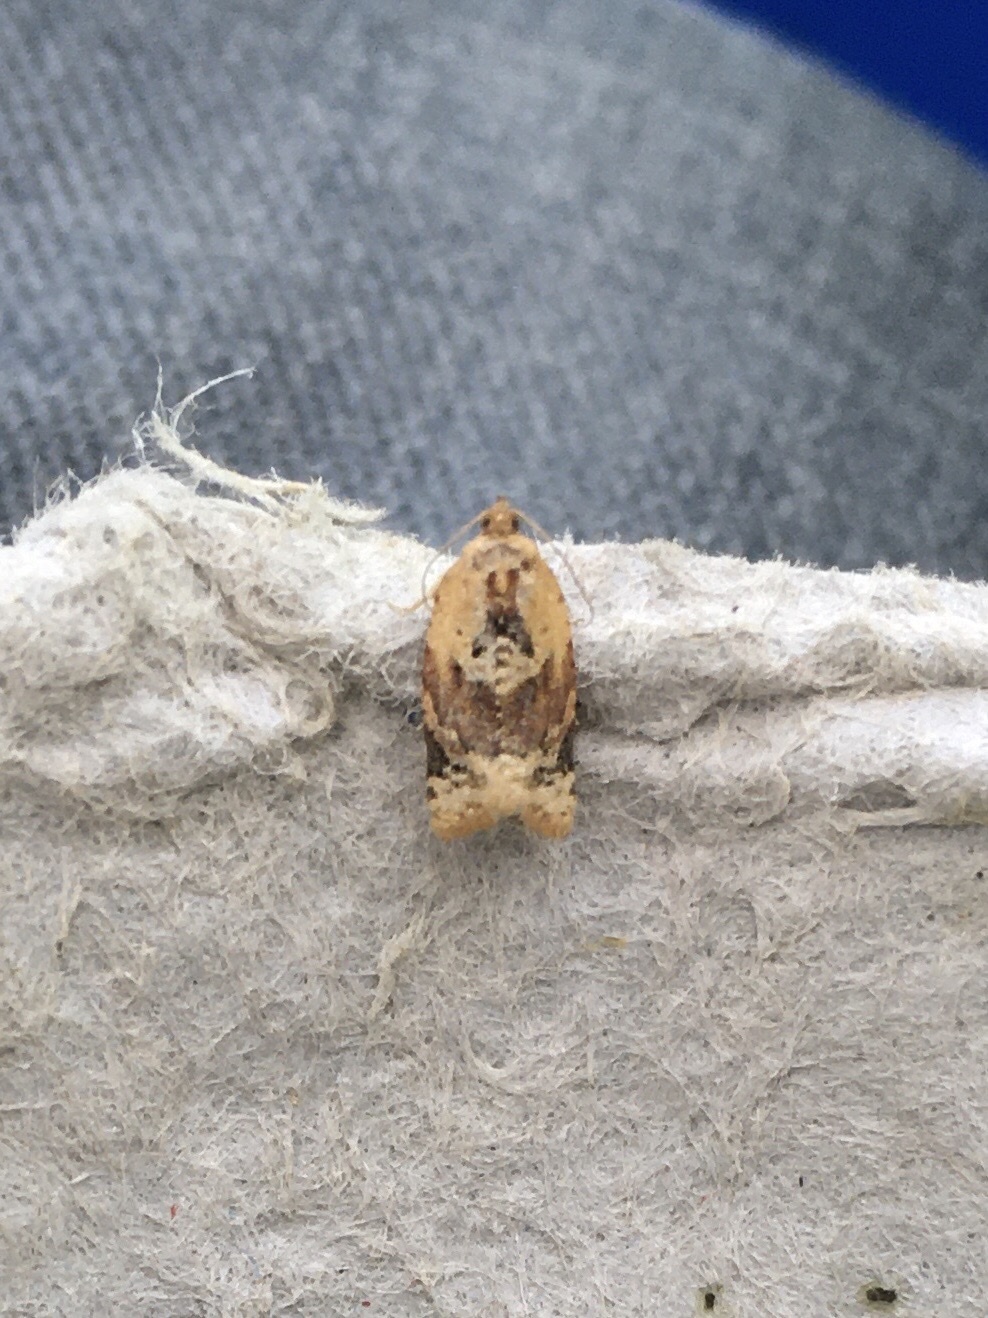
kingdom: Animalia
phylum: Arthropoda
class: Insecta
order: Lepidoptera
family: Tortricidae
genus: Argyrotaenia
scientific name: Argyrotaenia velutinana
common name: Red-banded leafroller moth
